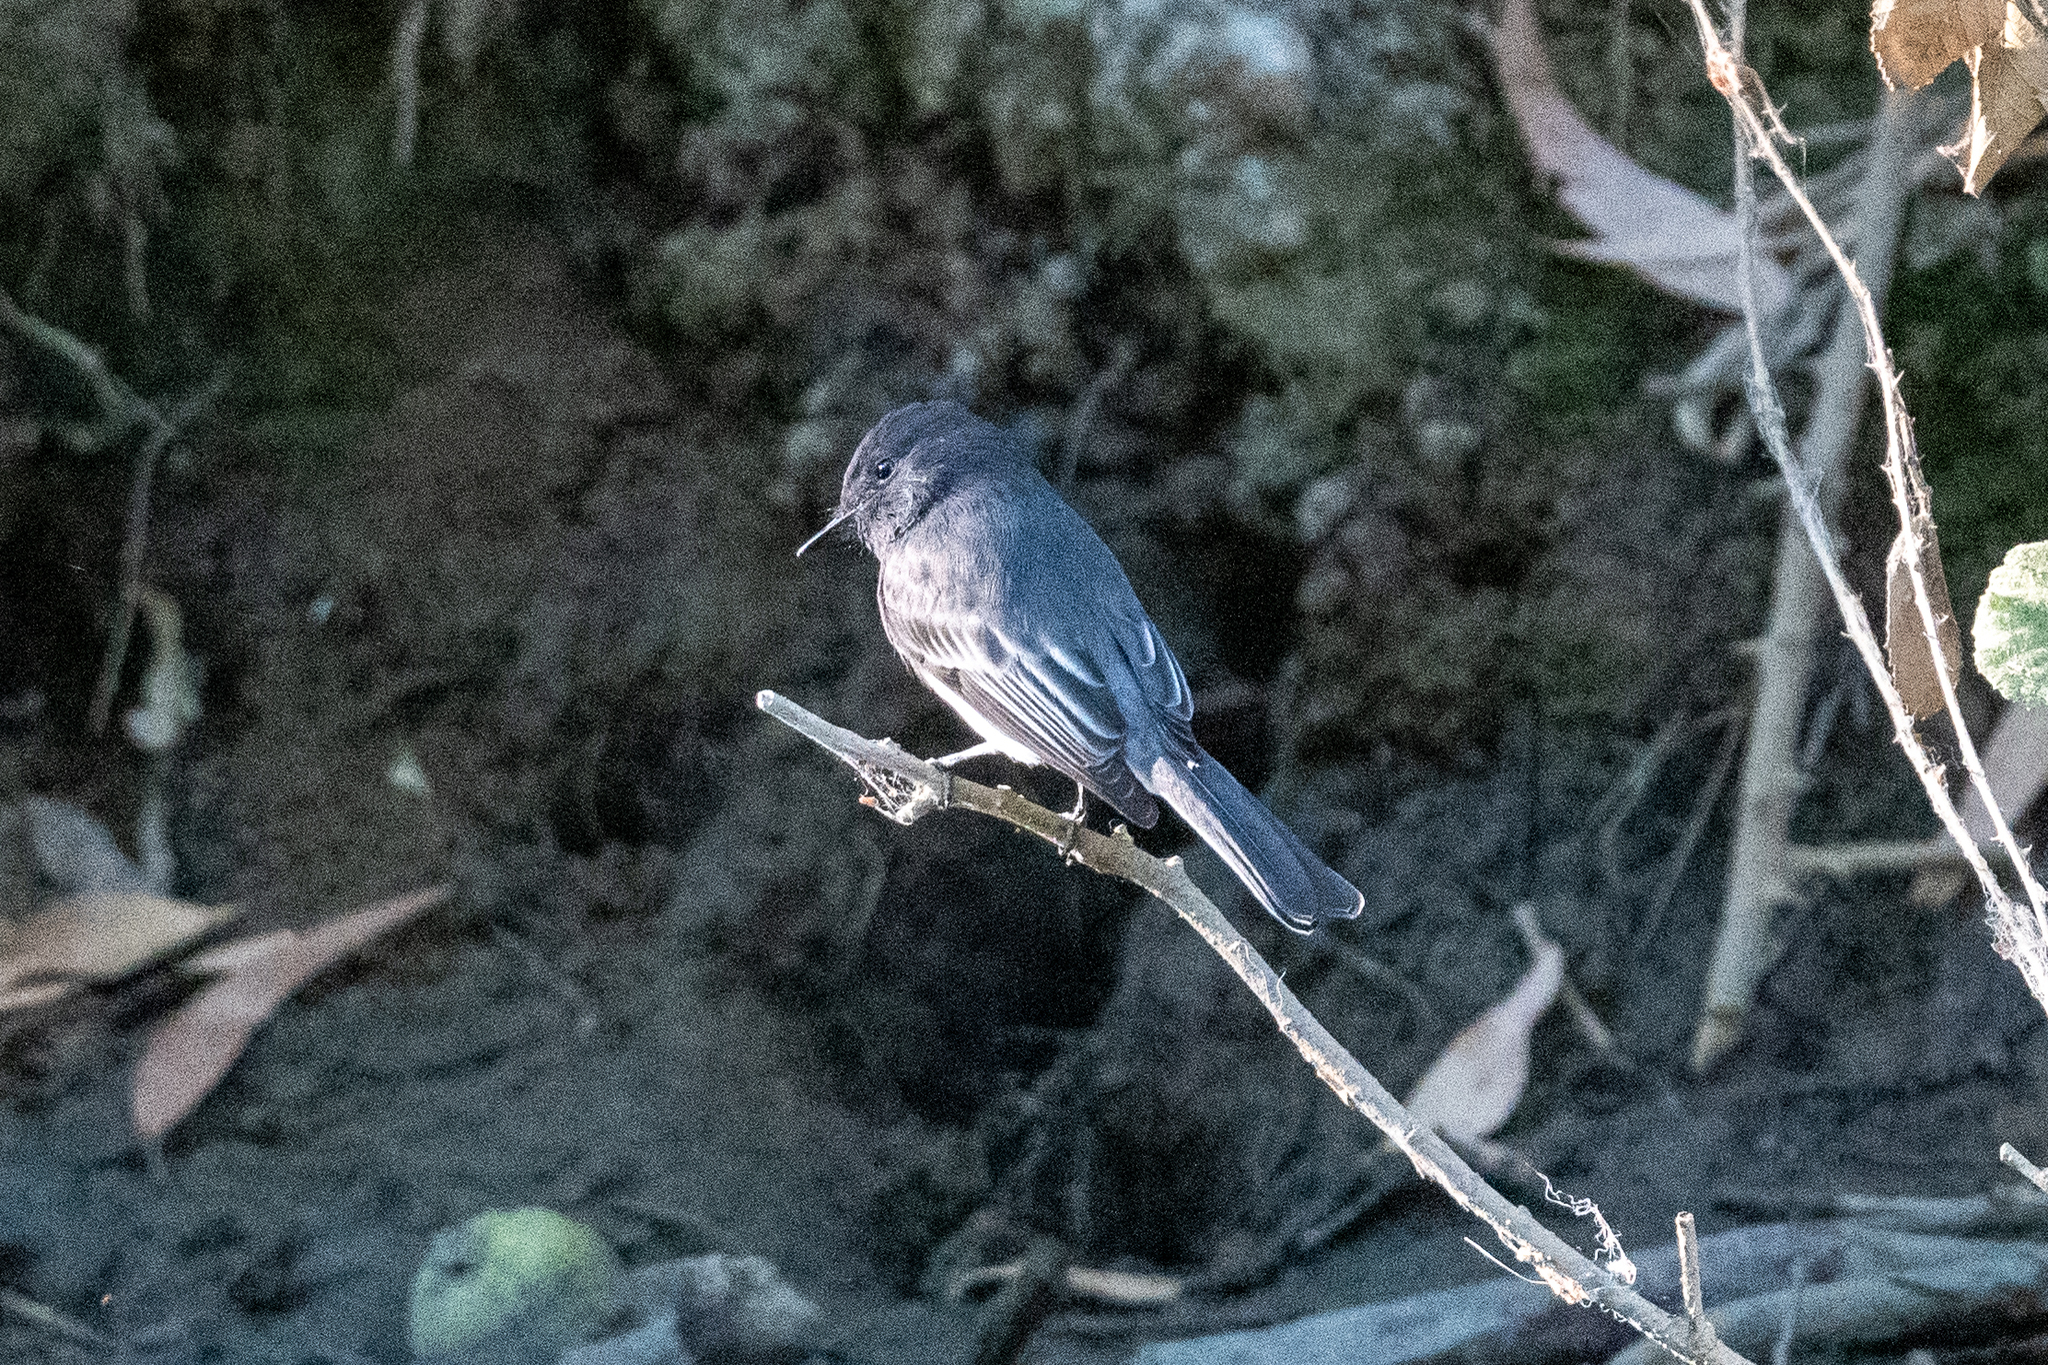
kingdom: Animalia
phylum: Chordata
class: Aves
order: Passeriformes
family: Tyrannidae
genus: Sayornis
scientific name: Sayornis nigricans
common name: Black phoebe
